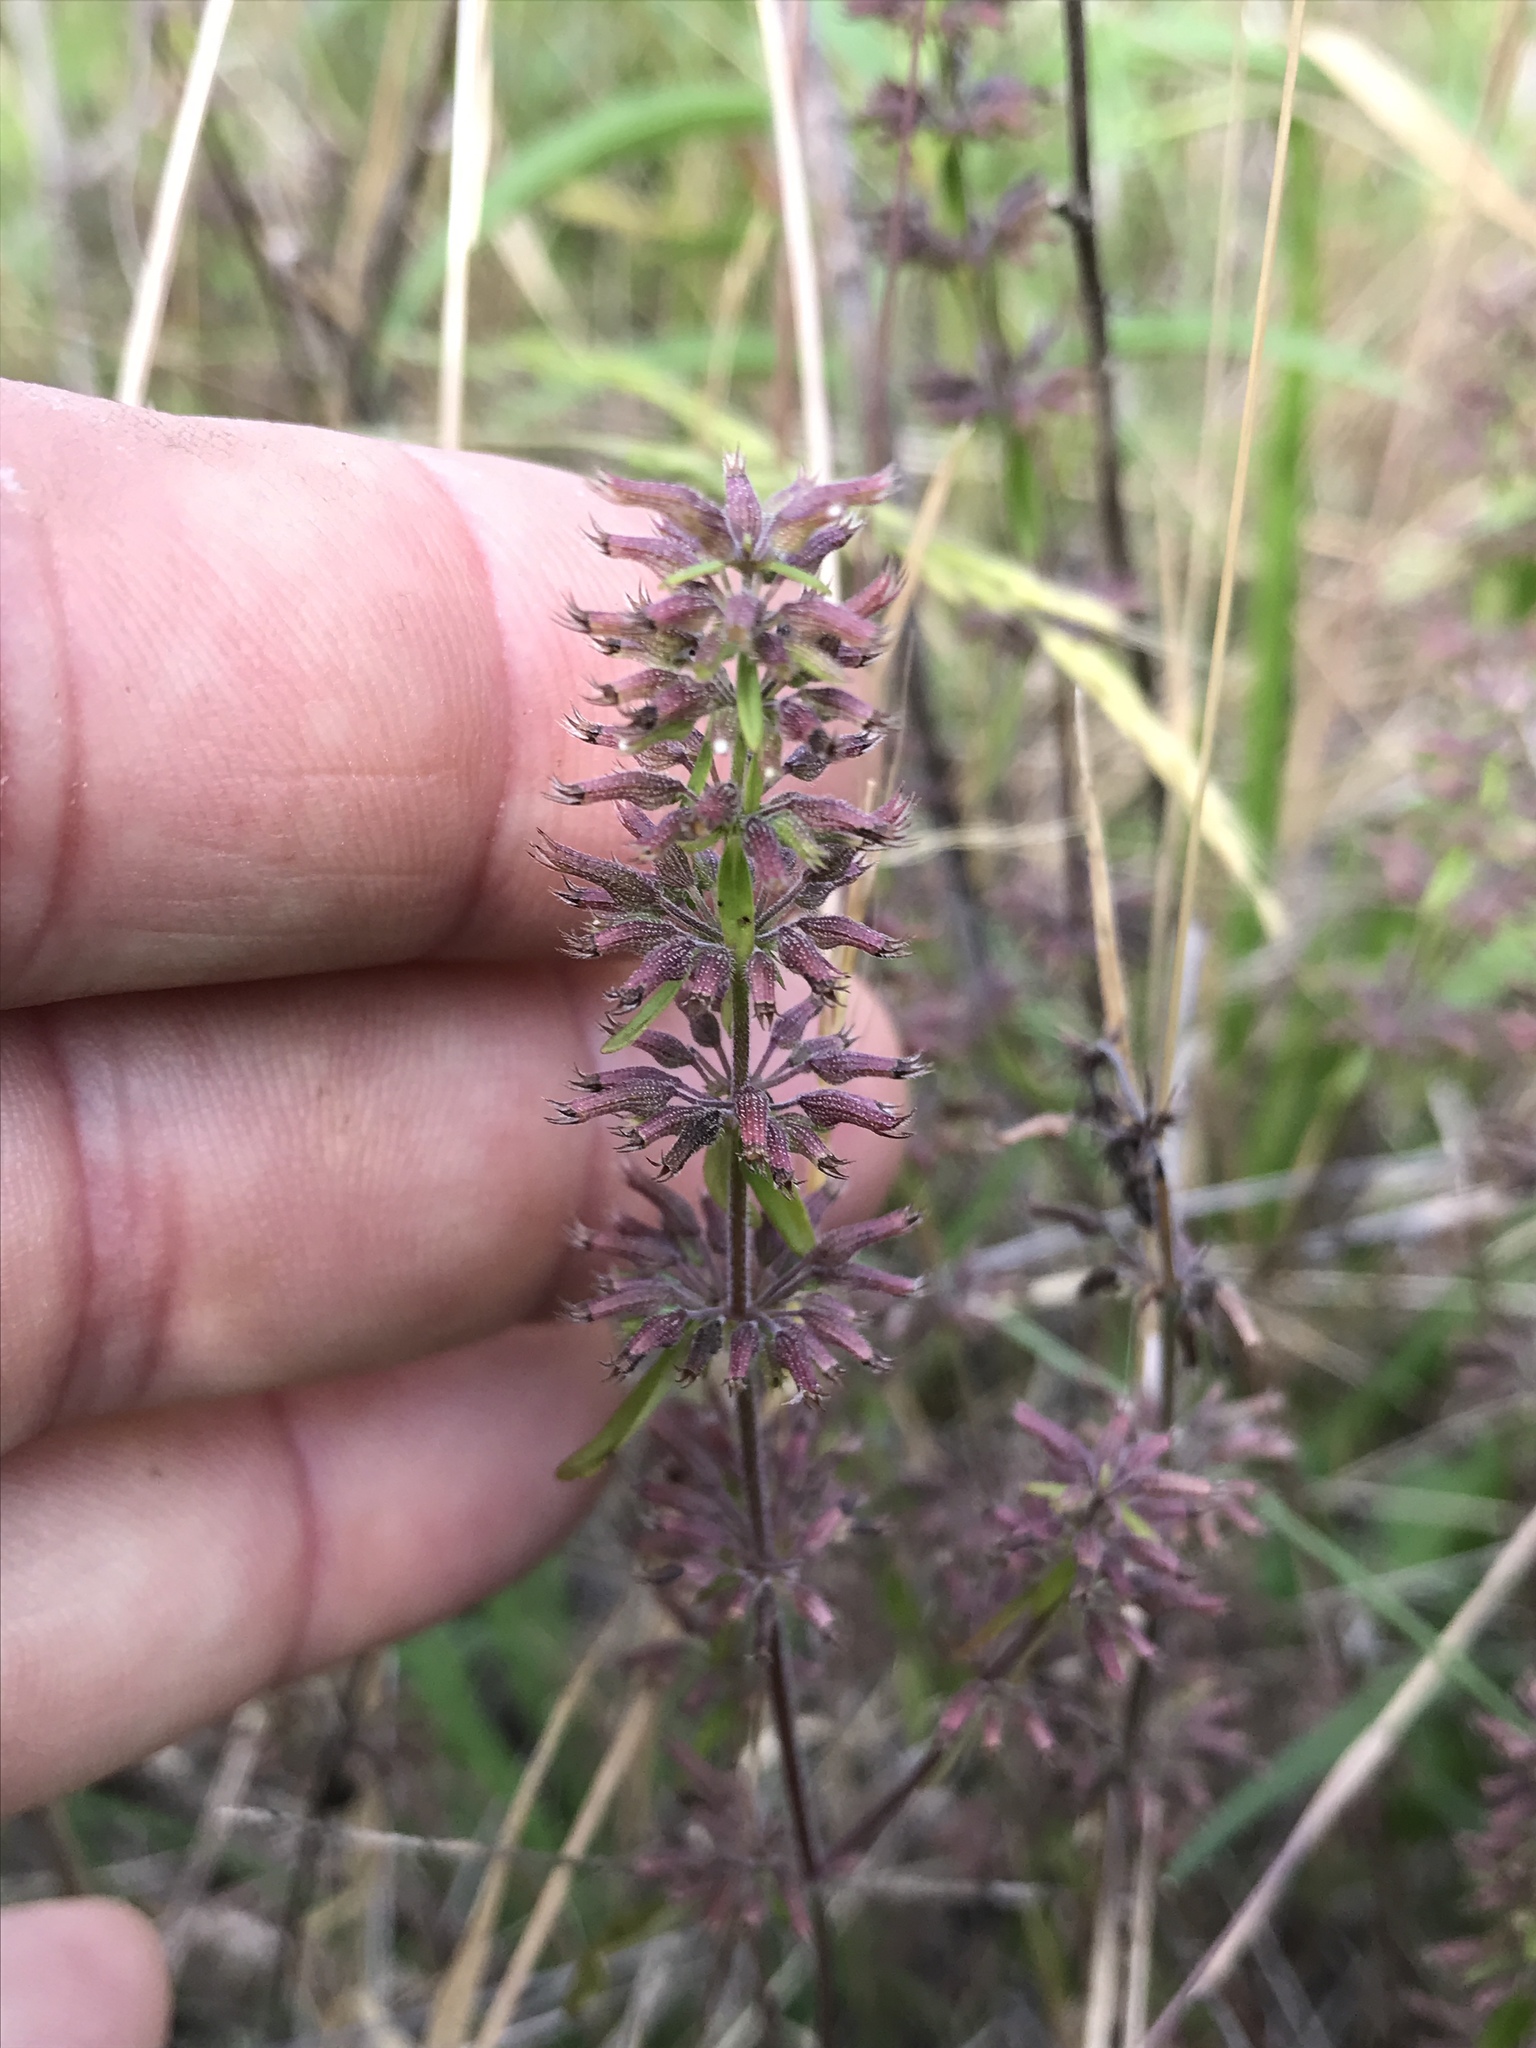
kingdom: Plantae
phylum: Tracheophyta
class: Magnoliopsida
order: Lamiales
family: Lamiaceae
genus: Hedeoma
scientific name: Hedeoma acinoides
